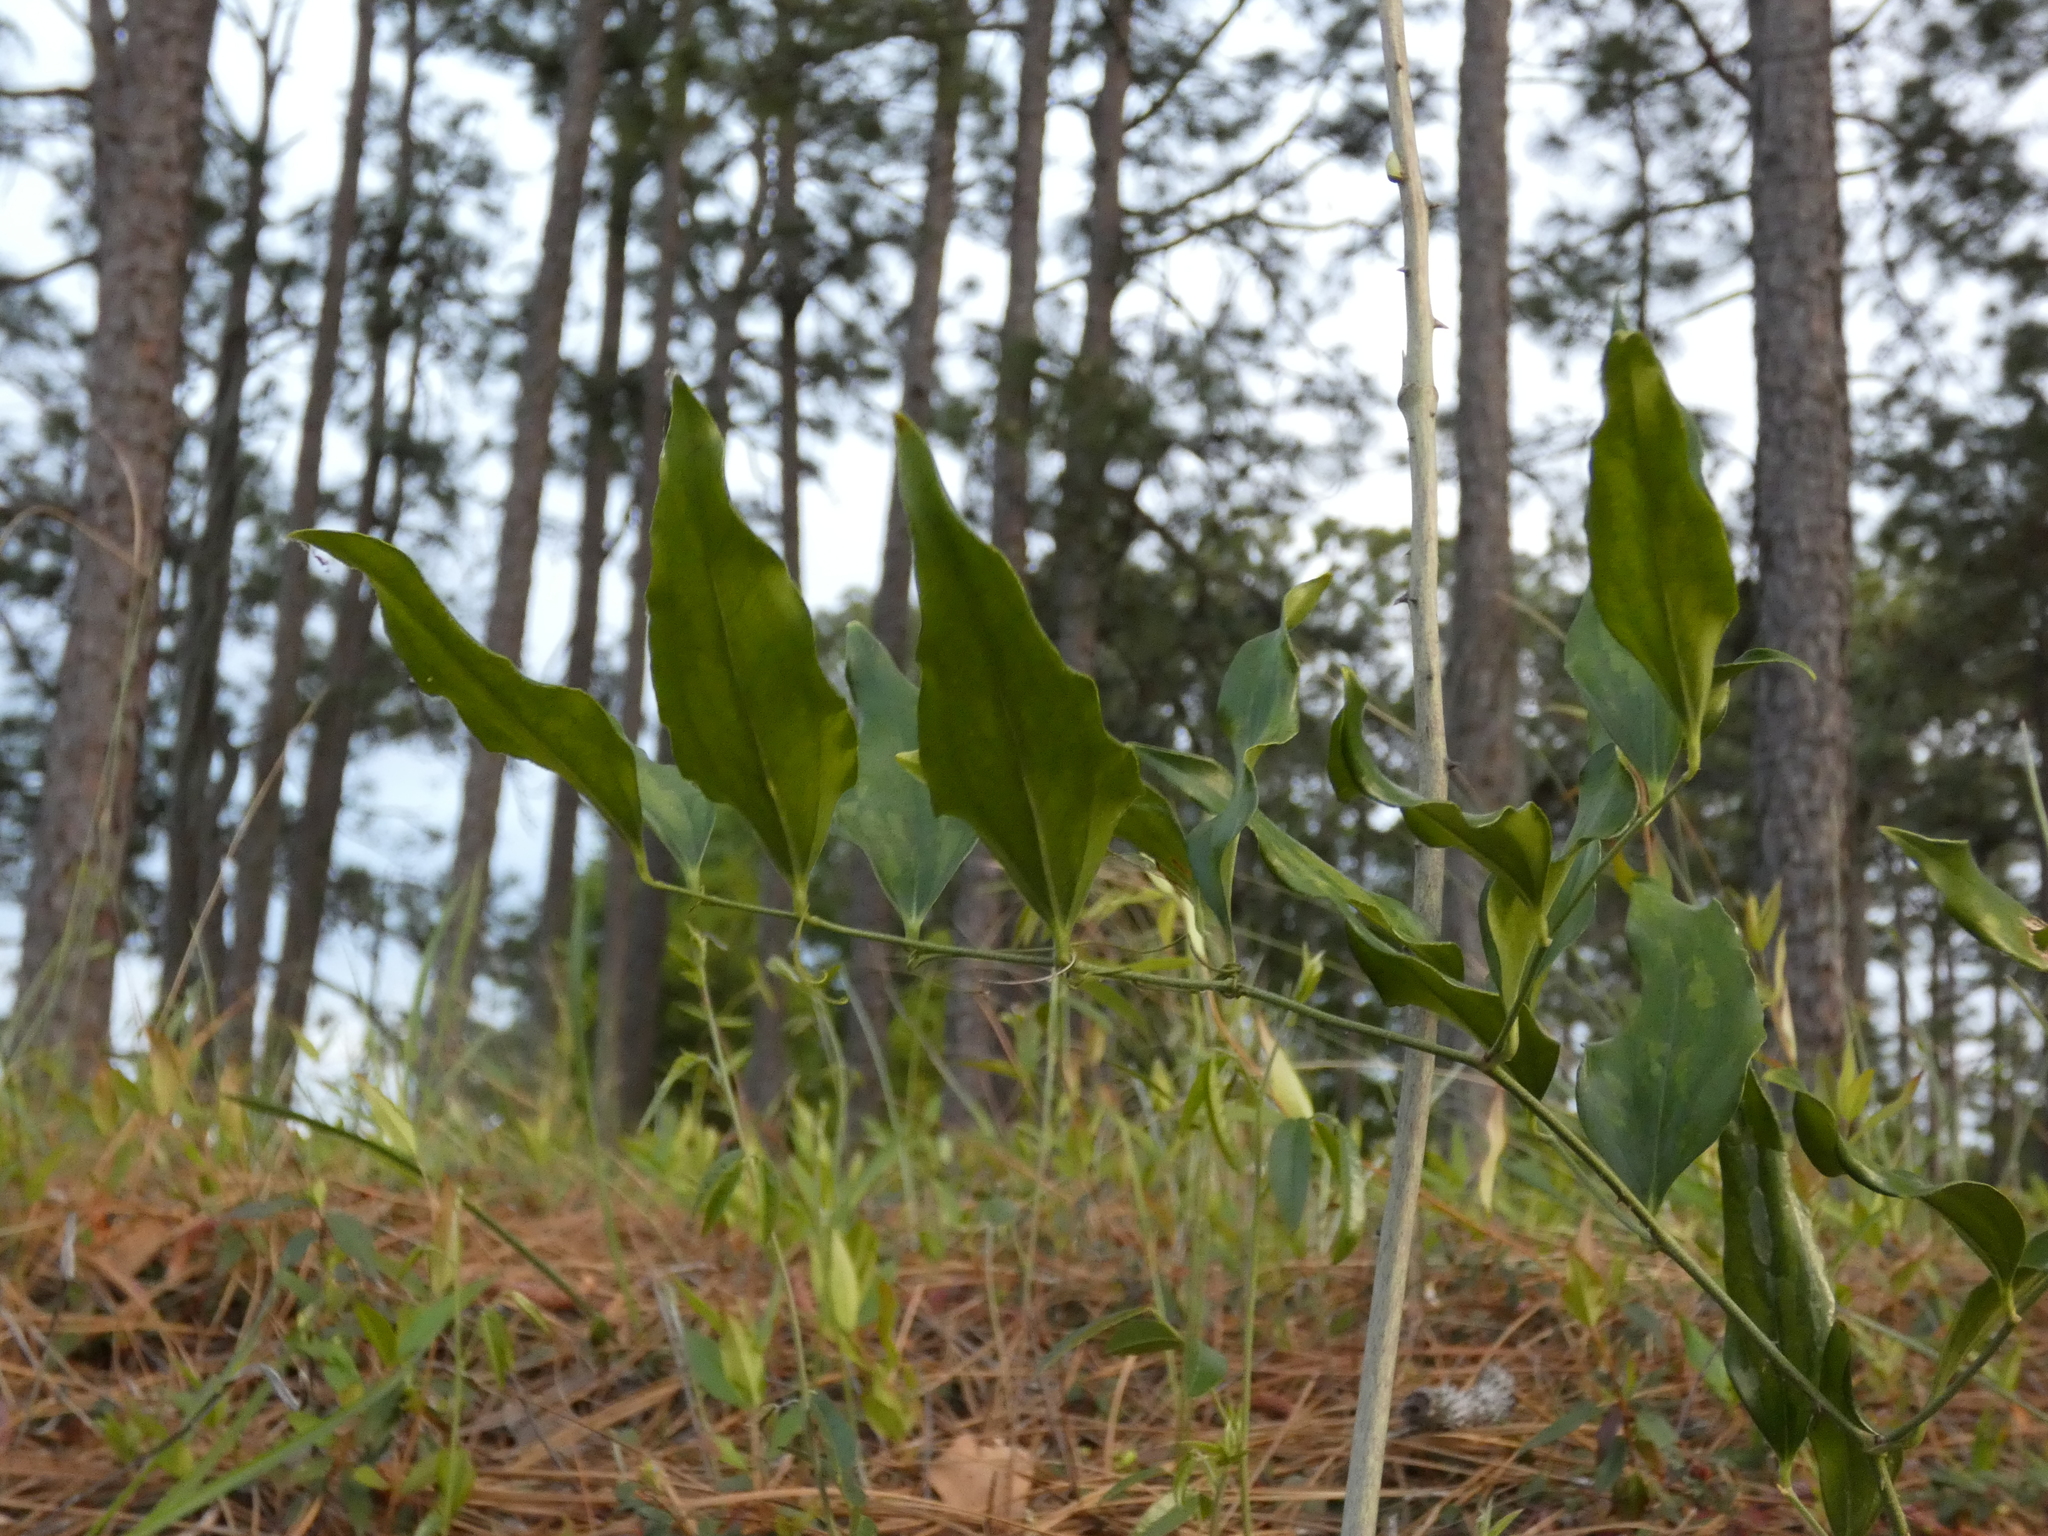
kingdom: Plantae
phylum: Tracheophyta
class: Liliopsida
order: Liliales
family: Smilacaceae
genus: Smilax
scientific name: Smilax maritima
